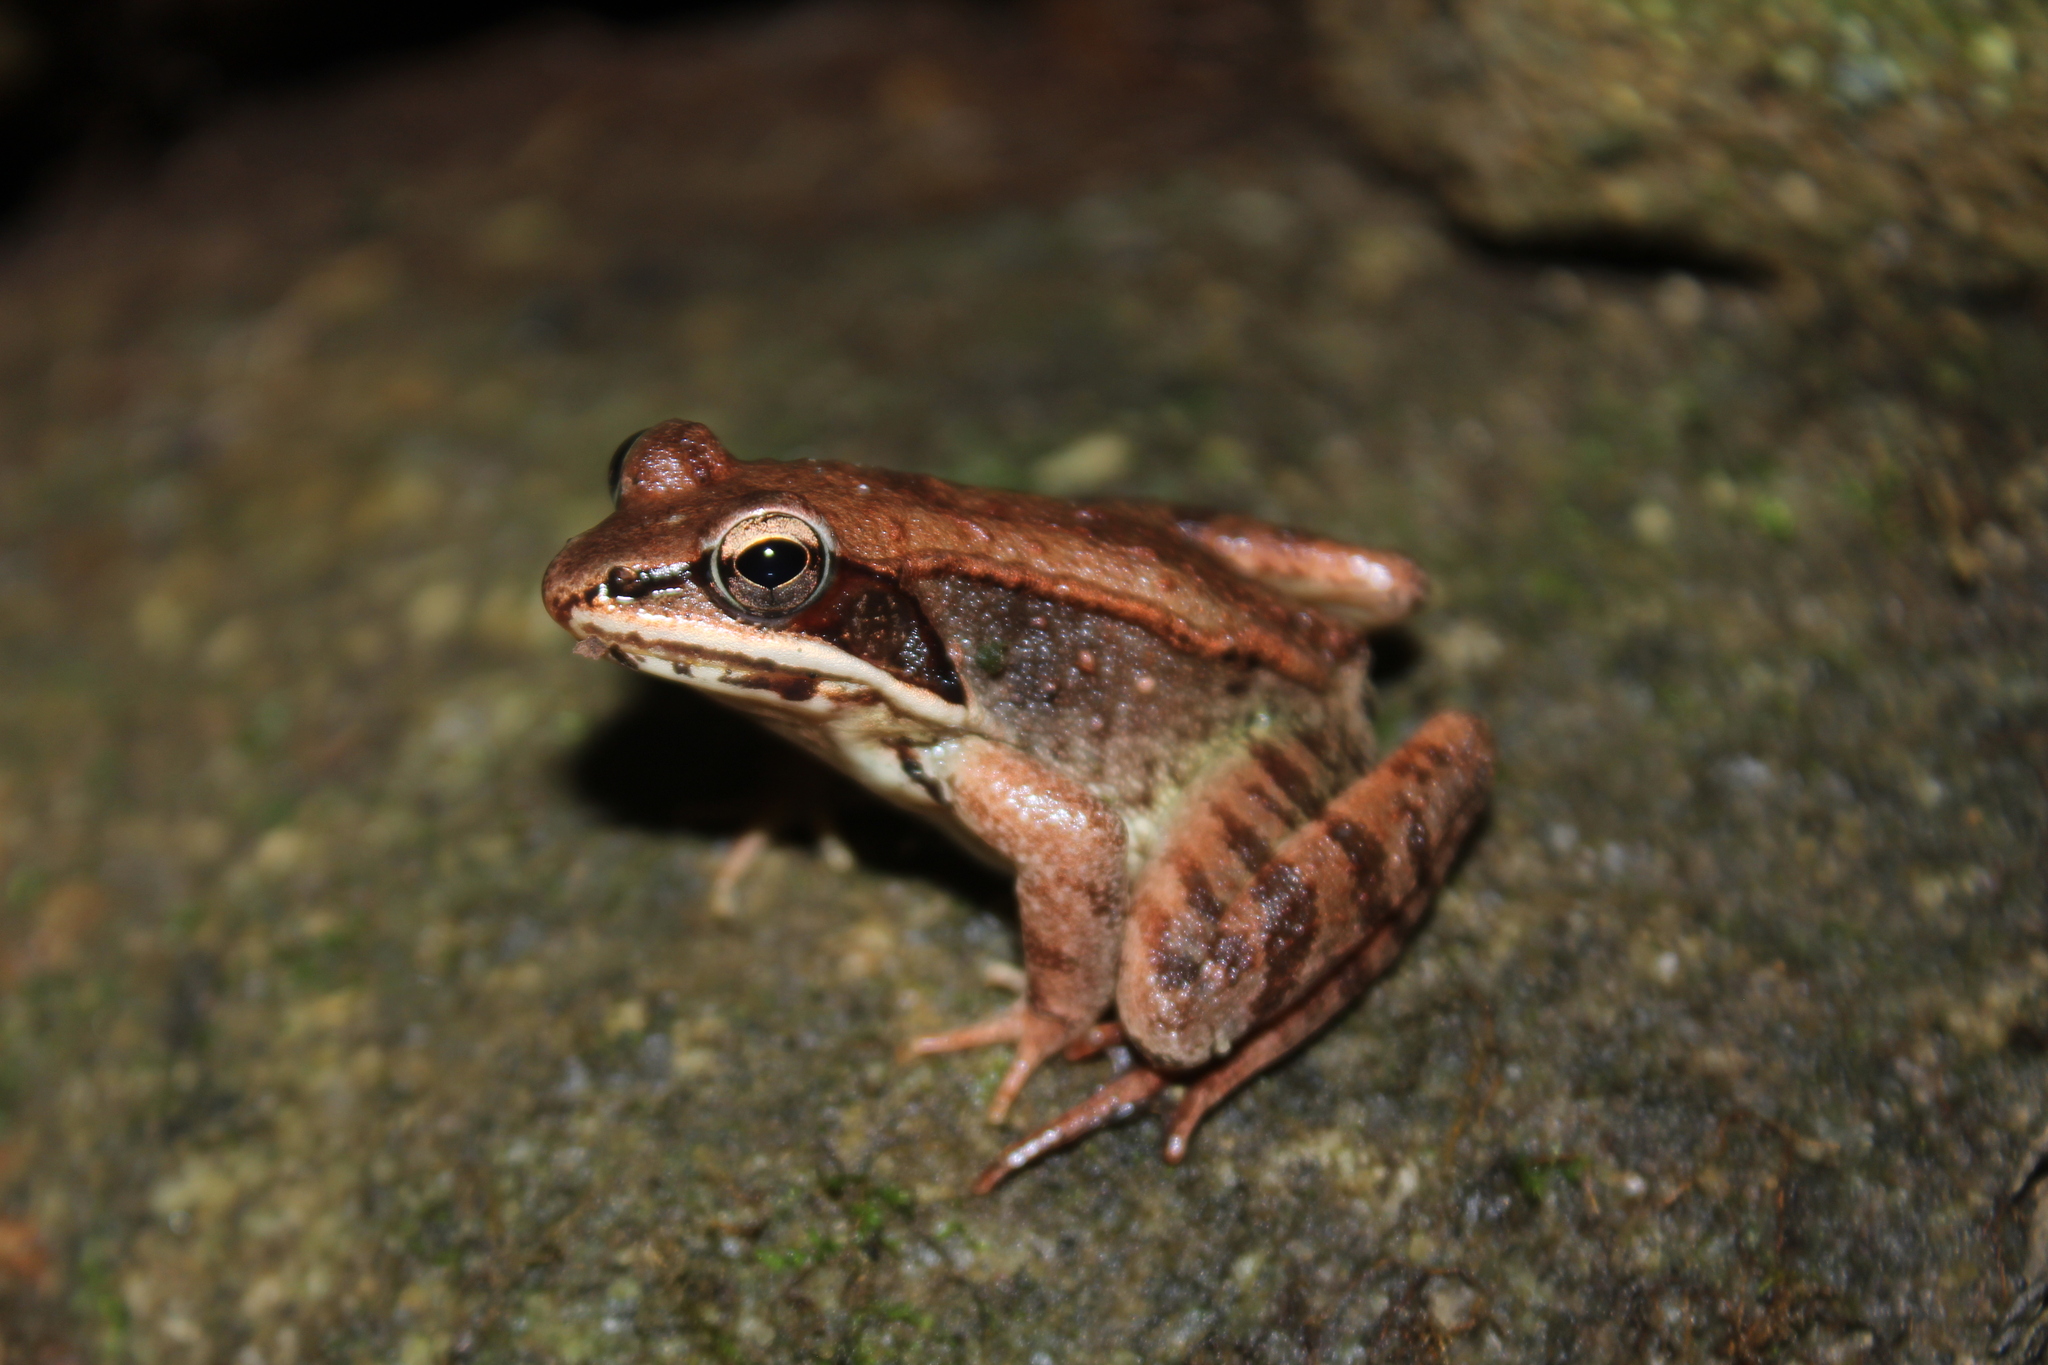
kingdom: Animalia
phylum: Chordata
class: Amphibia
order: Anura
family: Ranidae
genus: Lithobates
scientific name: Lithobates sylvaticus
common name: Wood frog
